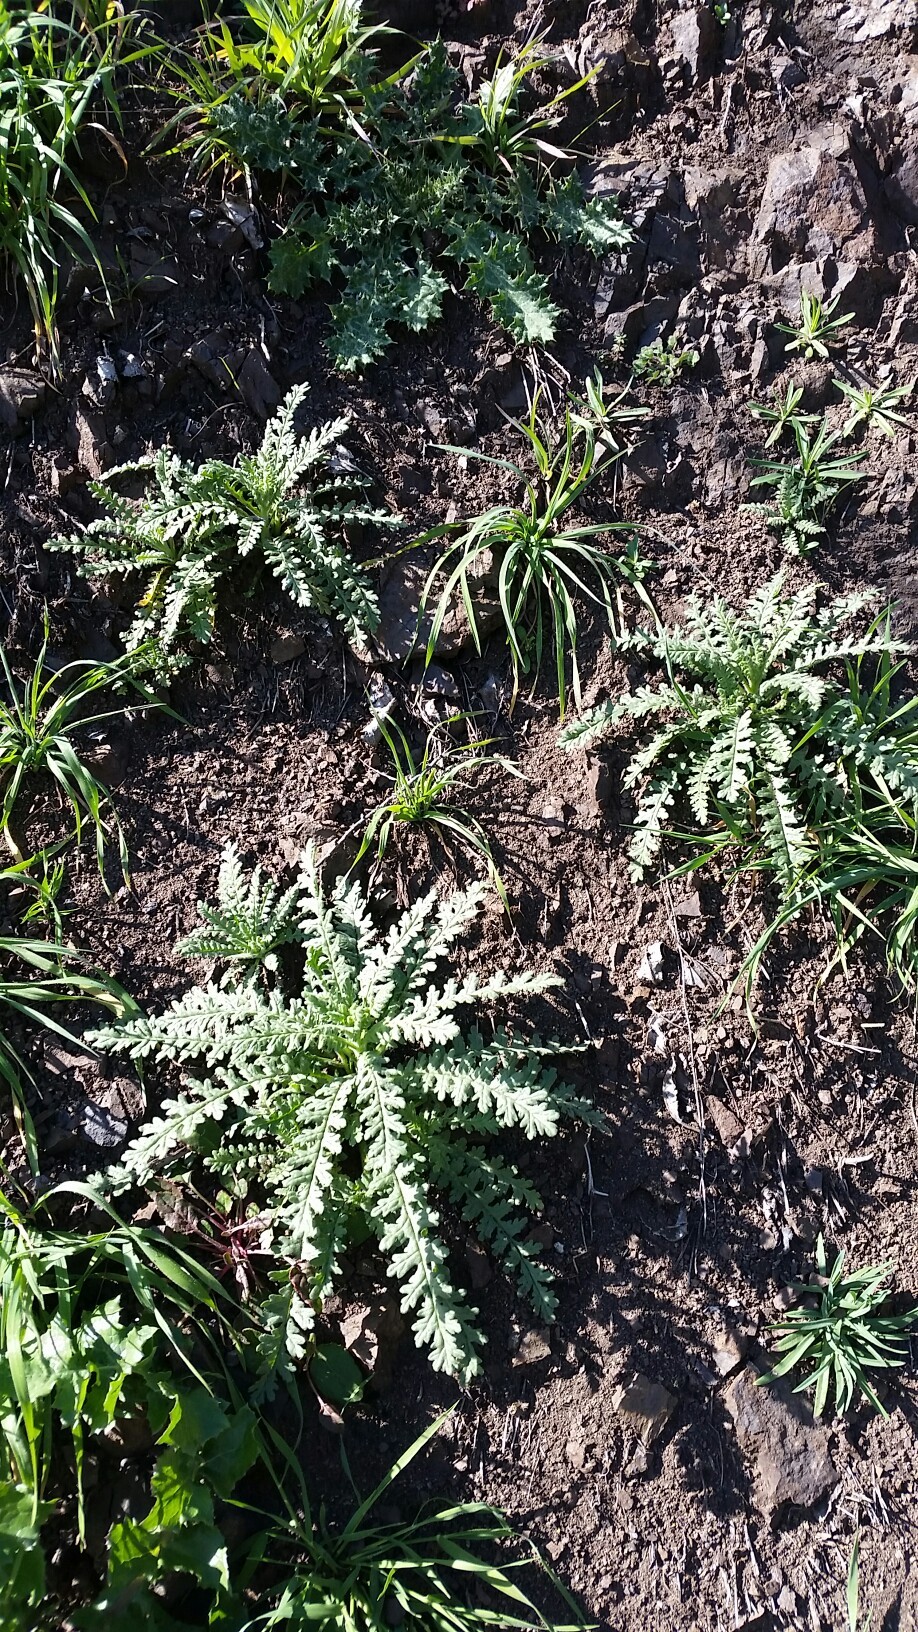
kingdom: Plantae
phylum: Tracheophyta
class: Magnoliopsida
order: Boraginales
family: Hydrophyllaceae
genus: Emmenanthe
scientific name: Emmenanthe penduliflora
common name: Whispering-bells
